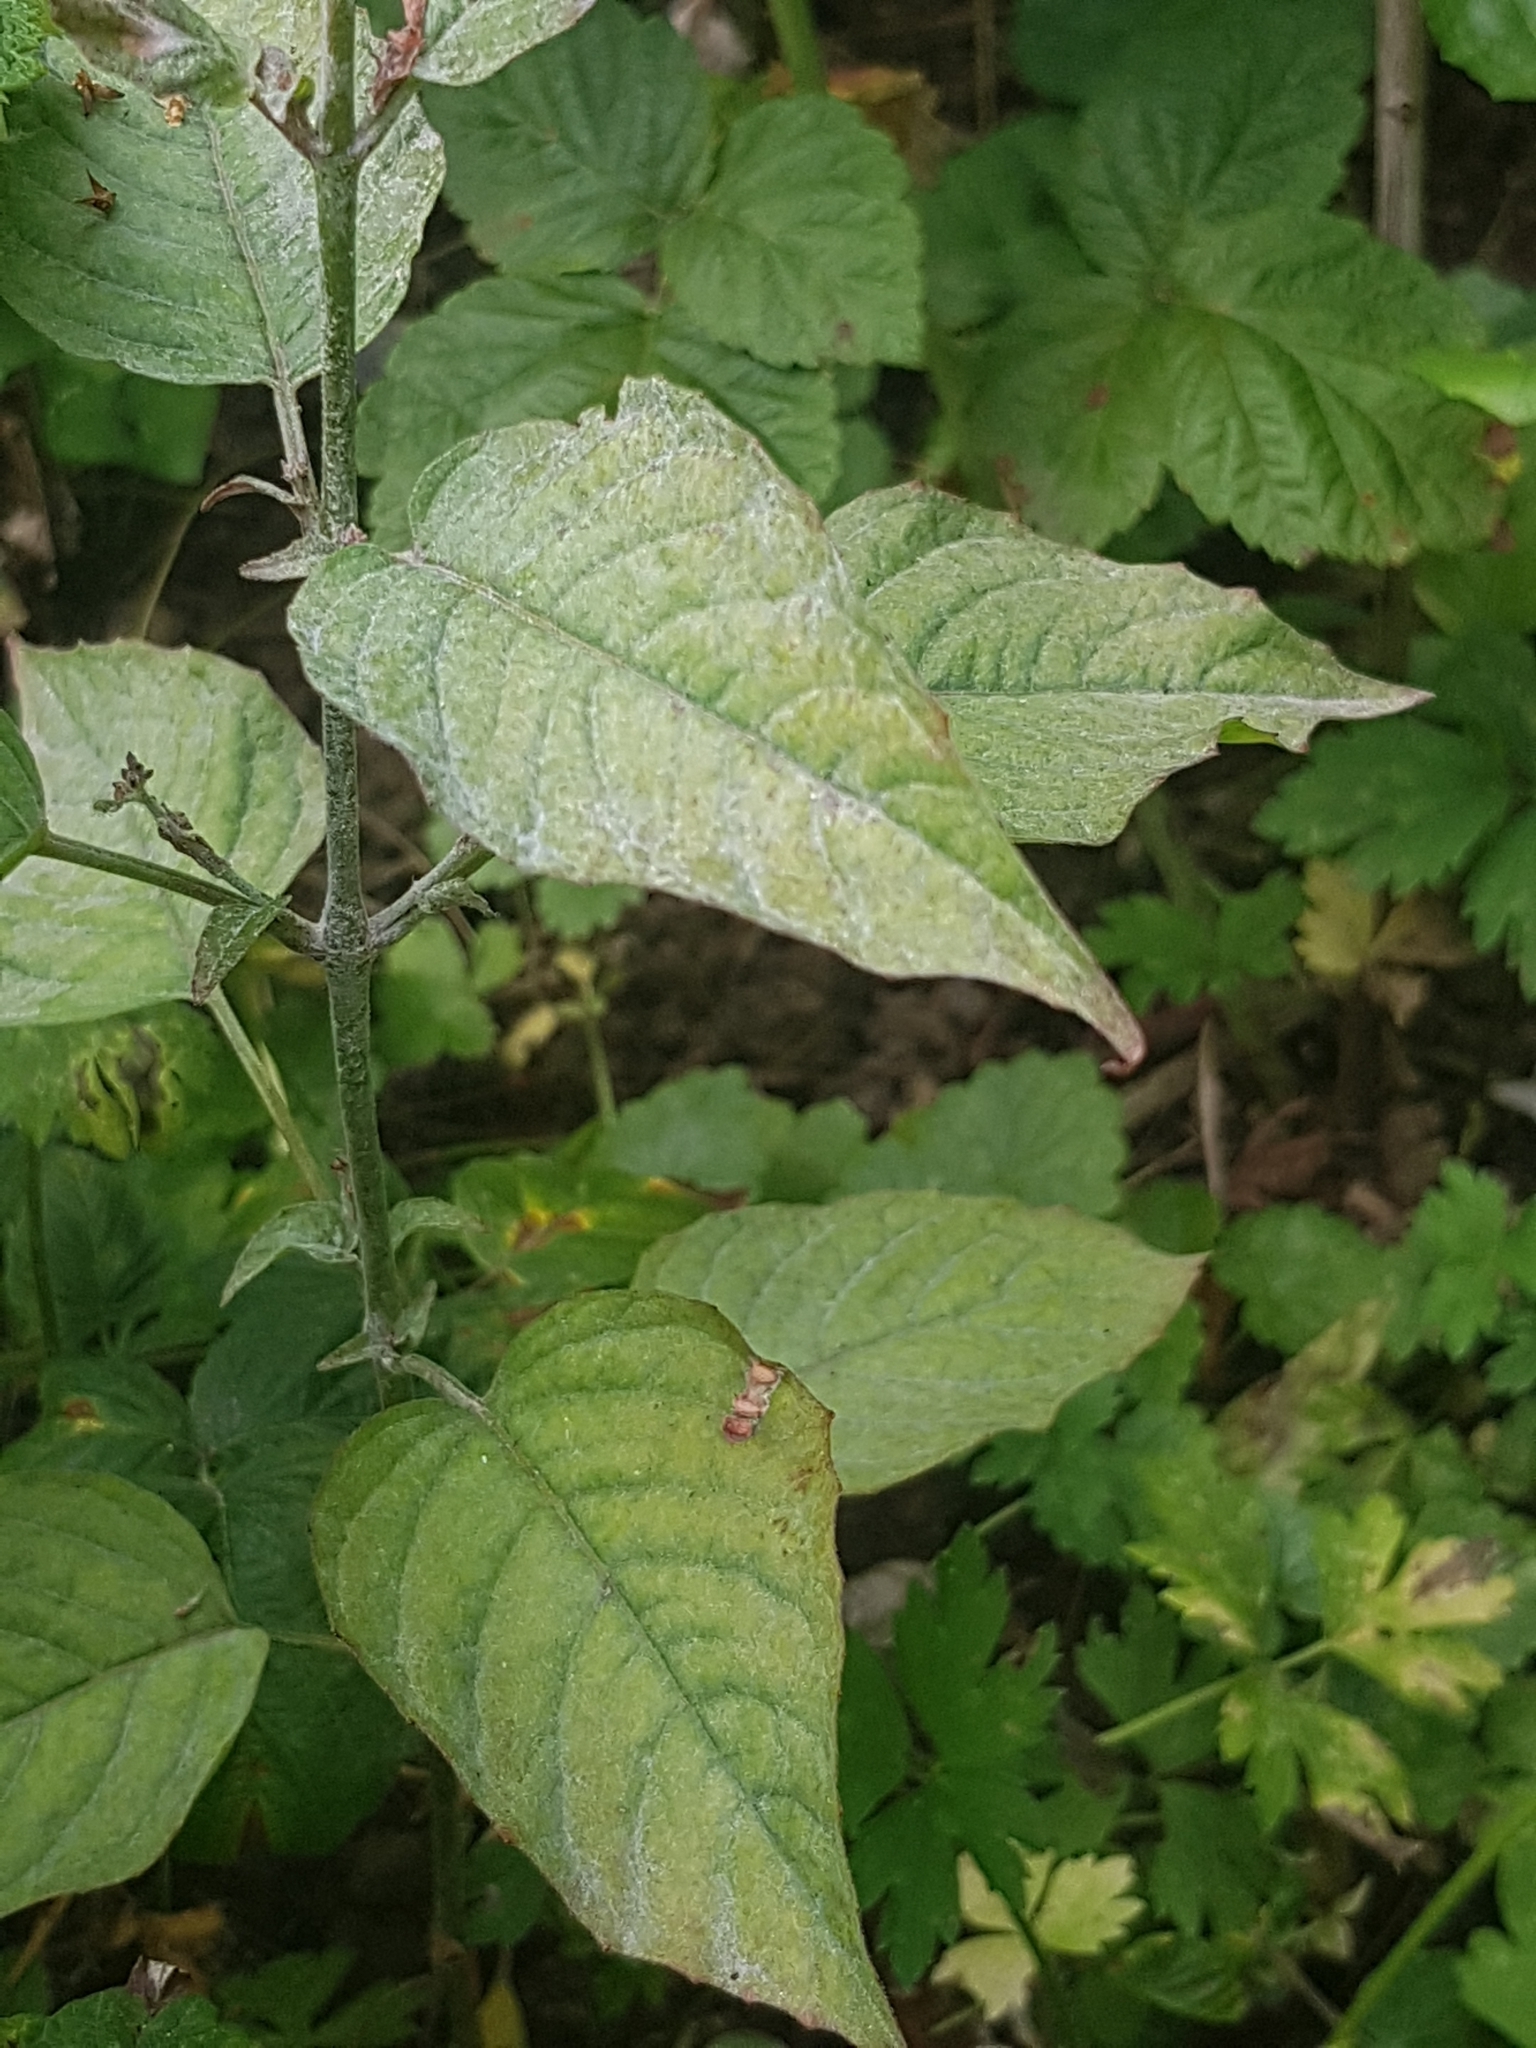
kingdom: Plantae
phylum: Tracheophyta
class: Magnoliopsida
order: Myrtales
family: Onagraceae
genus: Circaea
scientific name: Circaea lutetiana
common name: Enchanter's-nightshade
